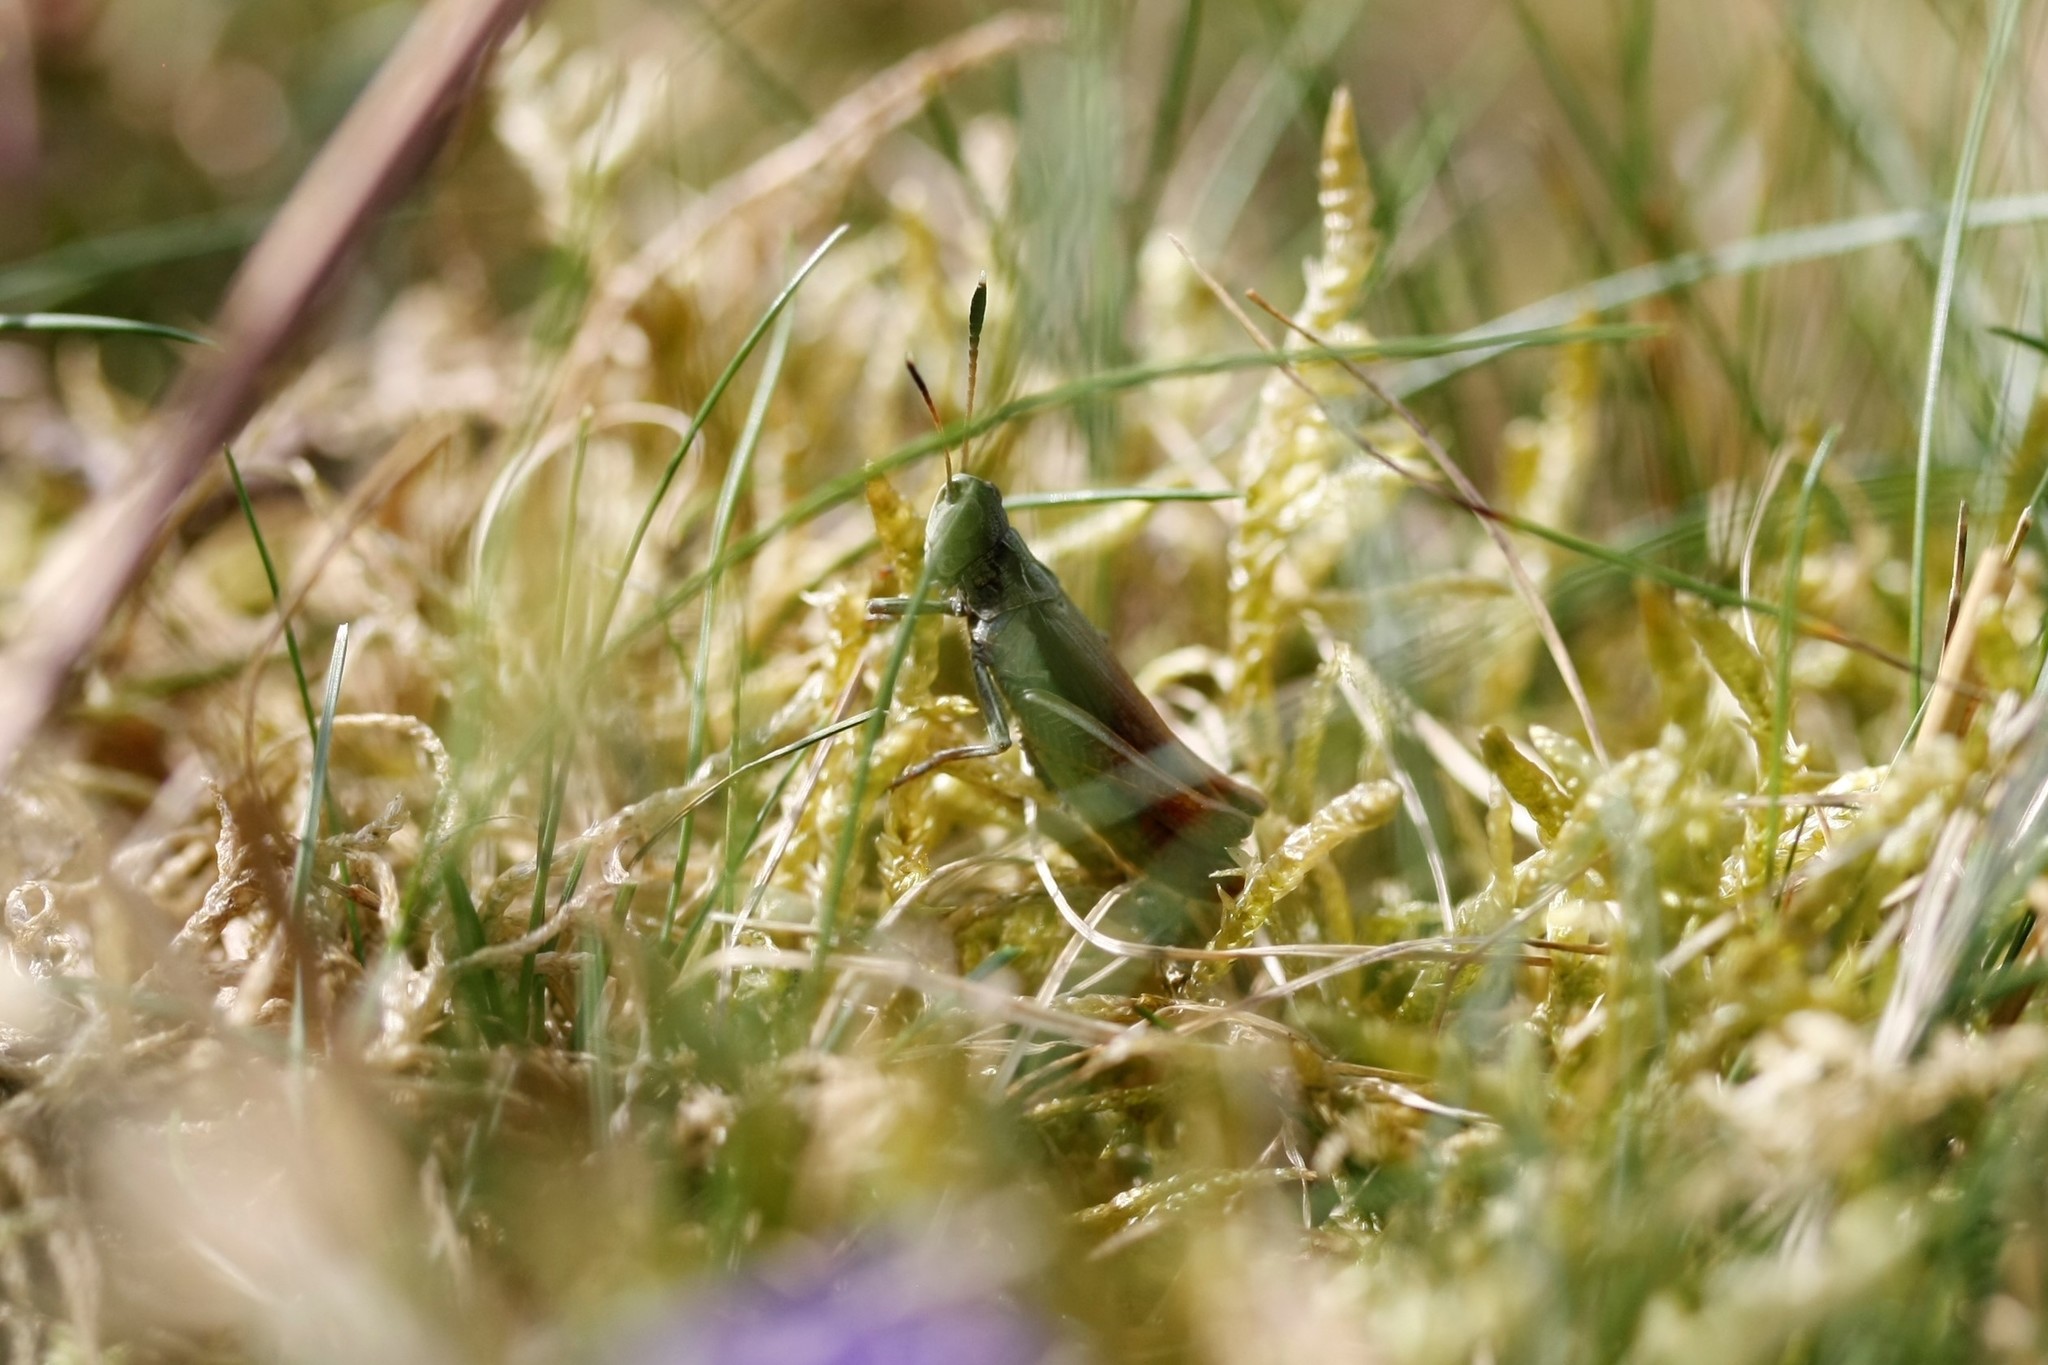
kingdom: Animalia
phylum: Arthropoda
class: Insecta
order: Orthoptera
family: Acrididae
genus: Gomphocerippus
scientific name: Gomphocerippus rufus
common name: Rufous grasshopper
